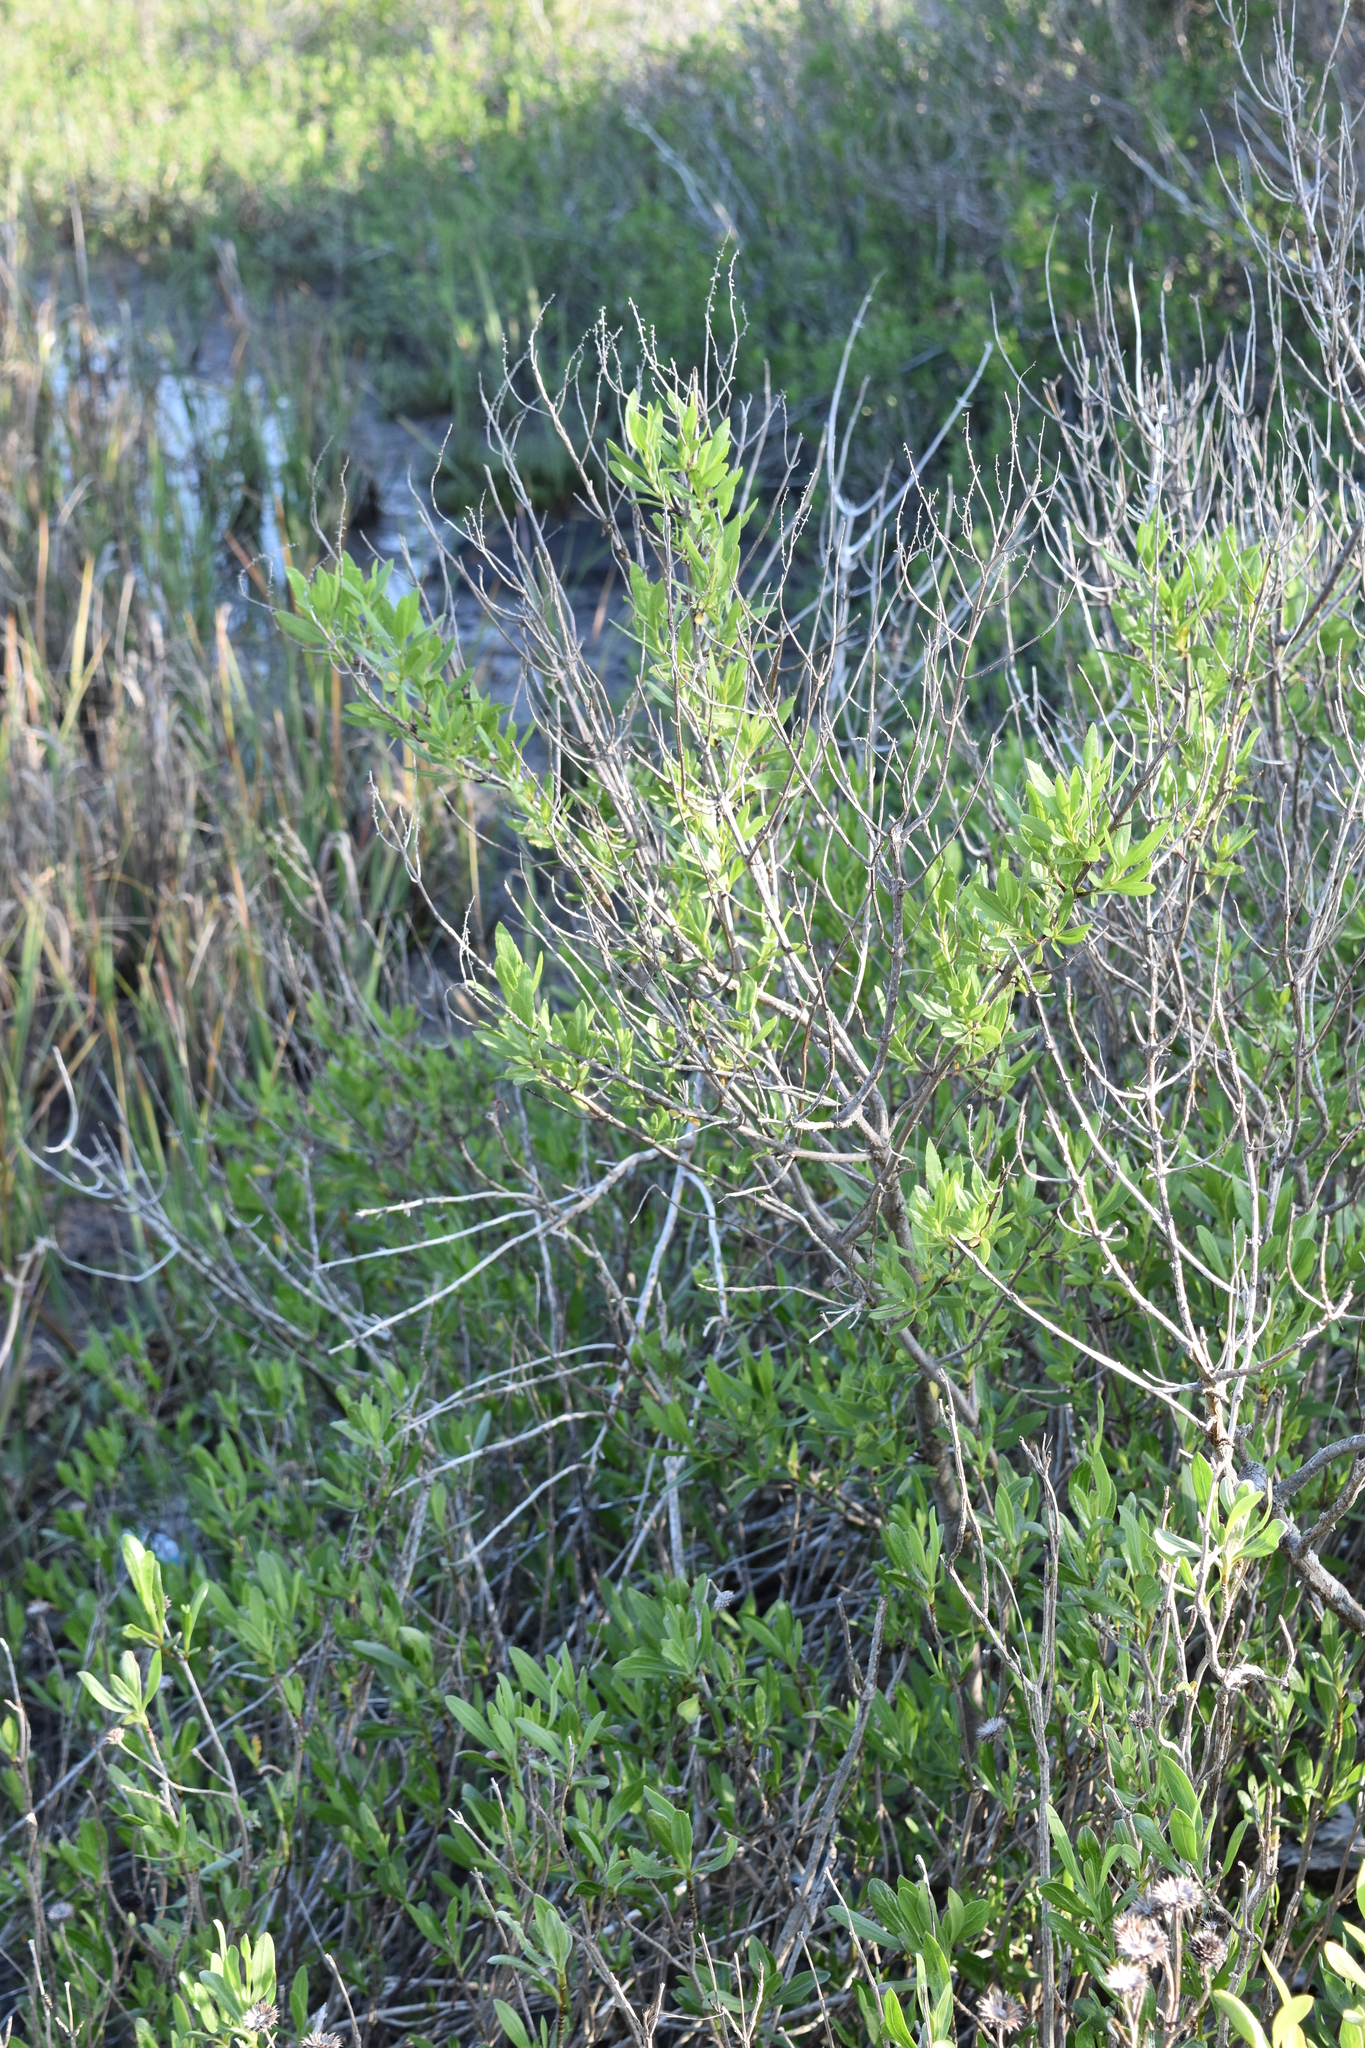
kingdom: Plantae
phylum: Tracheophyta
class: Magnoliopsida
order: Asterales
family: Asteraceae
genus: Iva
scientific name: Iva frutescens
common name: Big-leaved marsh-elder
